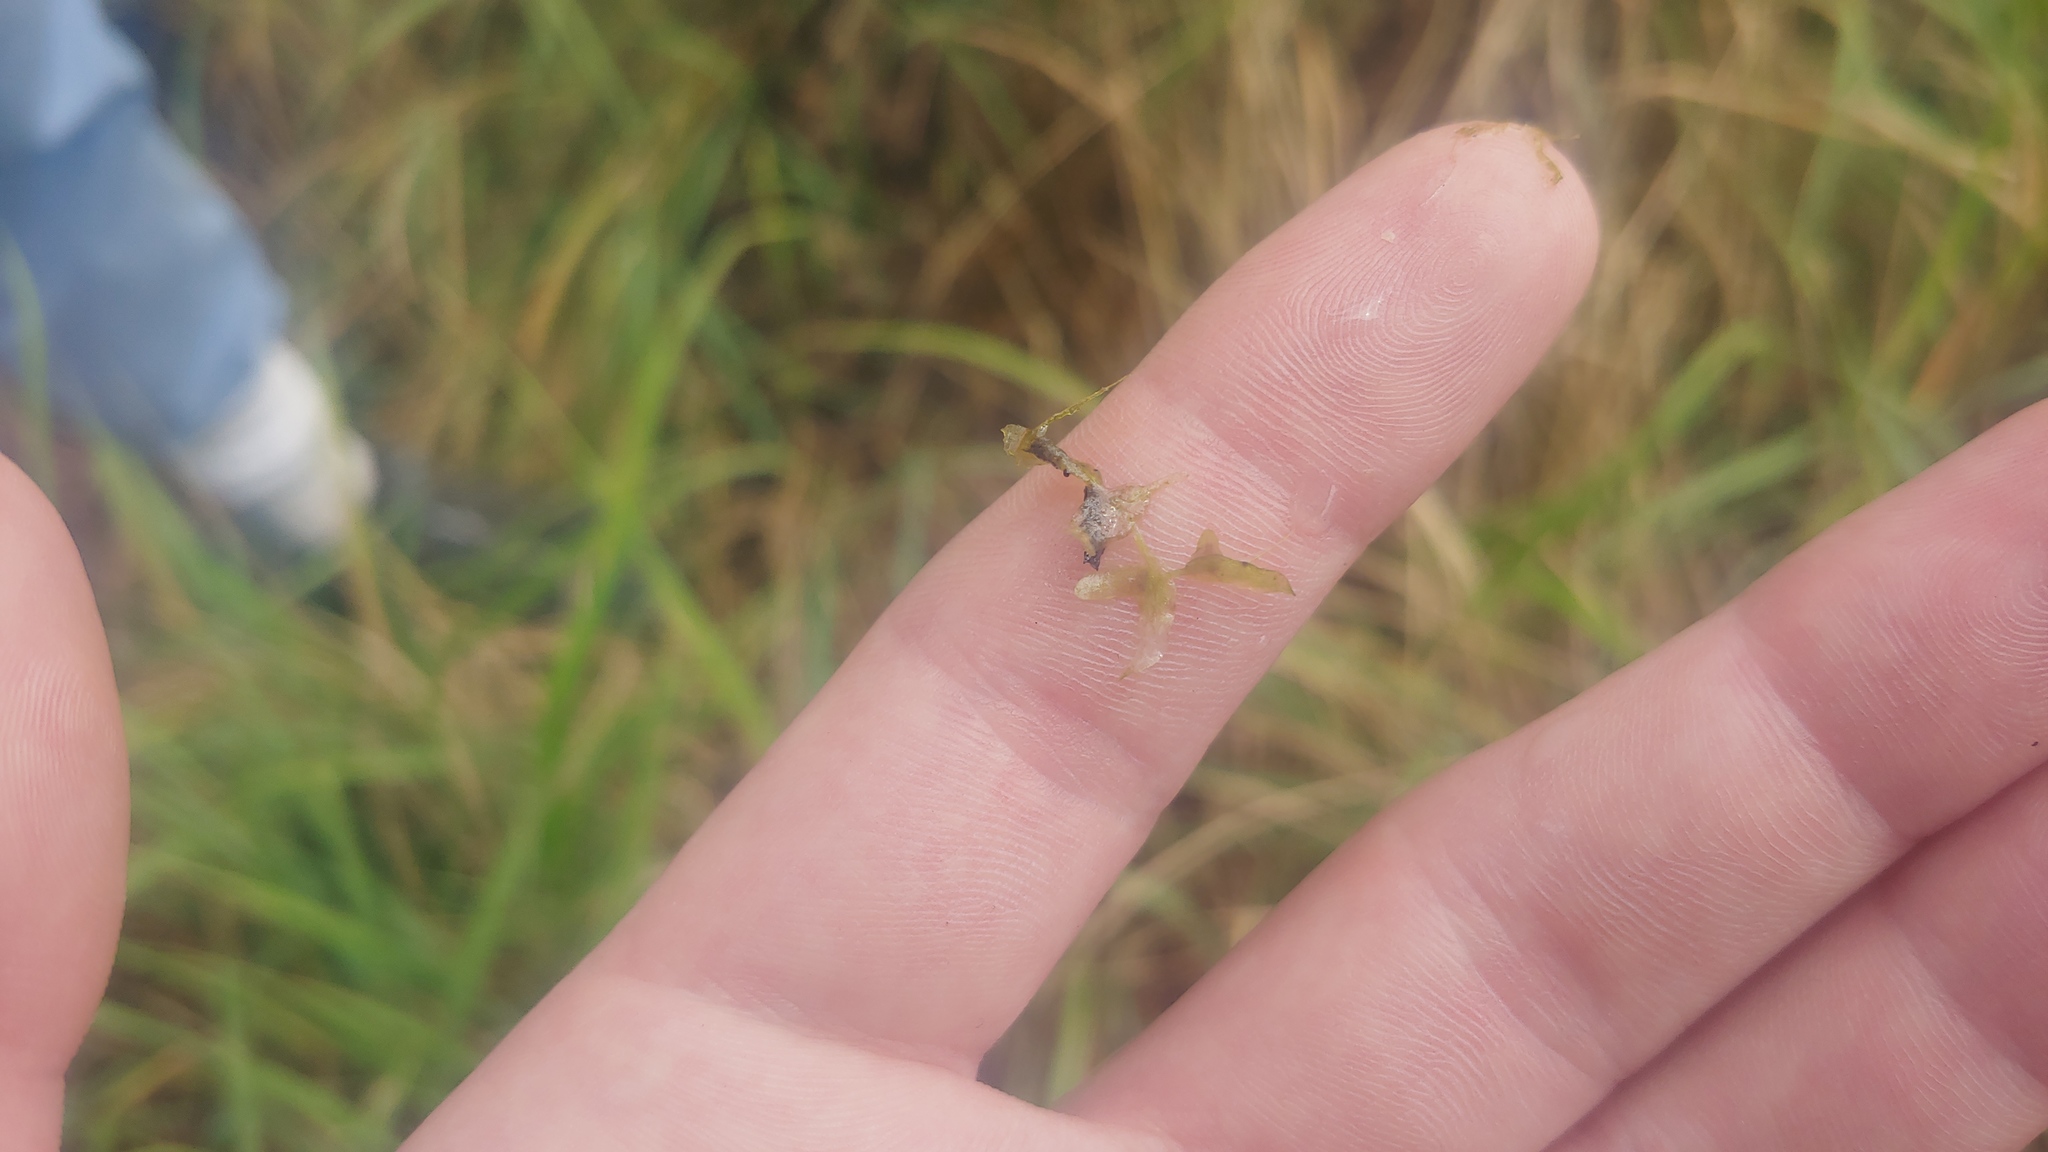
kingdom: Plantae
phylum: Tracheophyta
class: Liliopsida
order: Alismatales
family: Araceae
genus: Lemna
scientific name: Lemna trisulca
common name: Ivy-leaved duckweed
